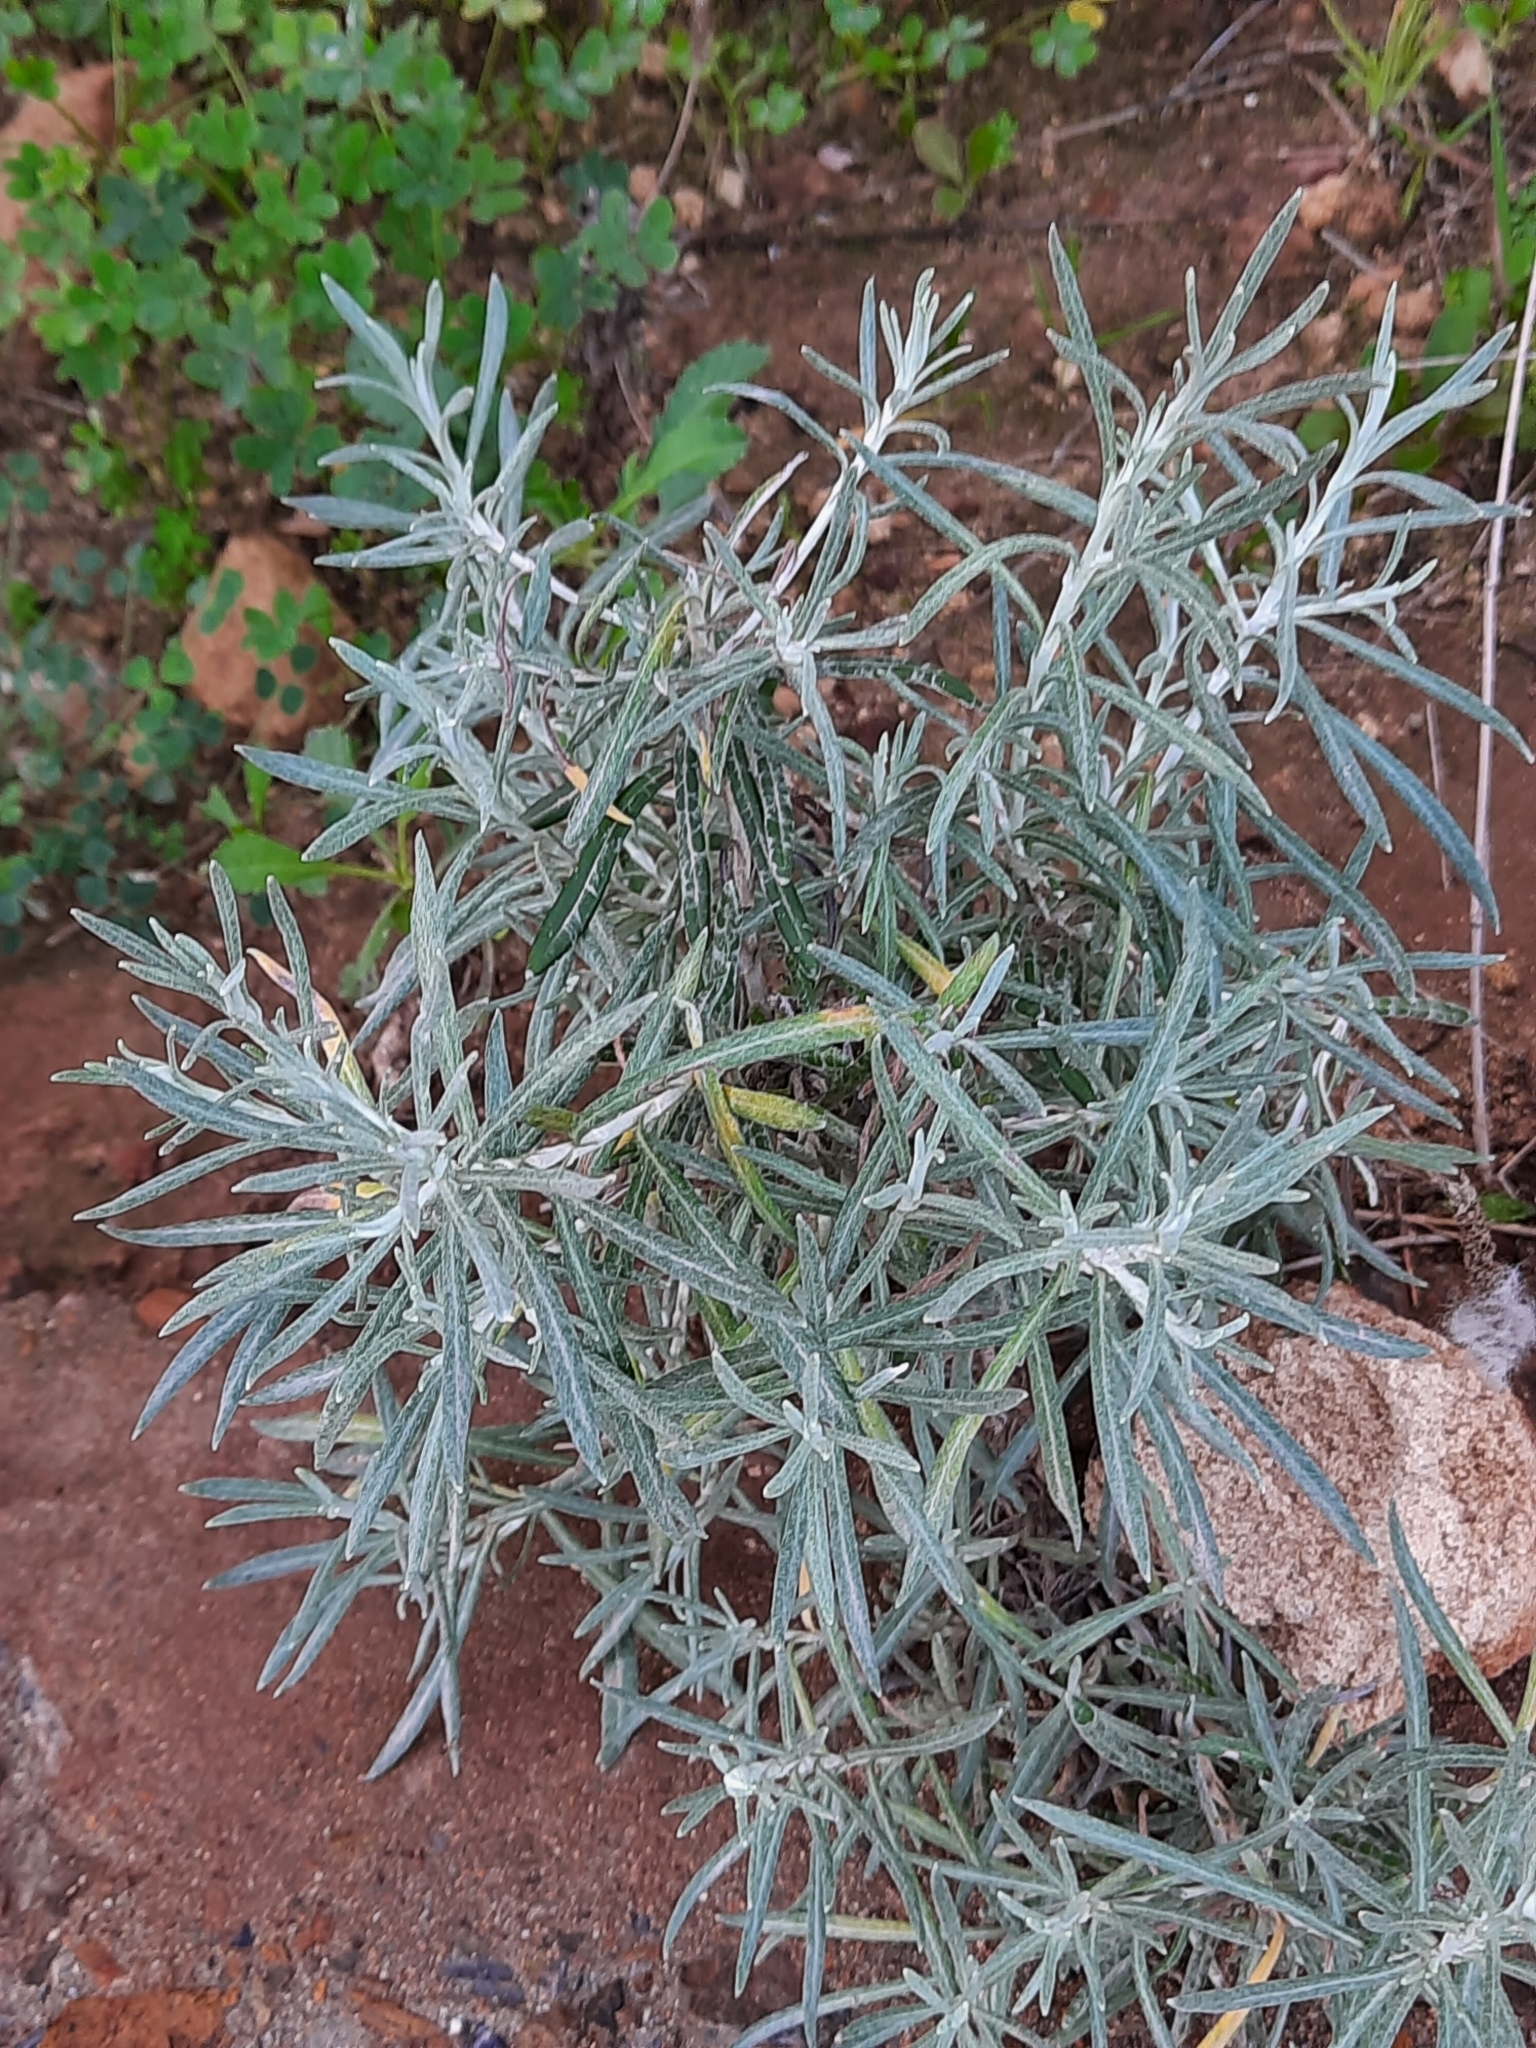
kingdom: Plantae
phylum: Tracheophyta
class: Magnoliopsida
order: Asterales
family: Asteraceae
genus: Helichrysum
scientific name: Helichrysum pendulum
